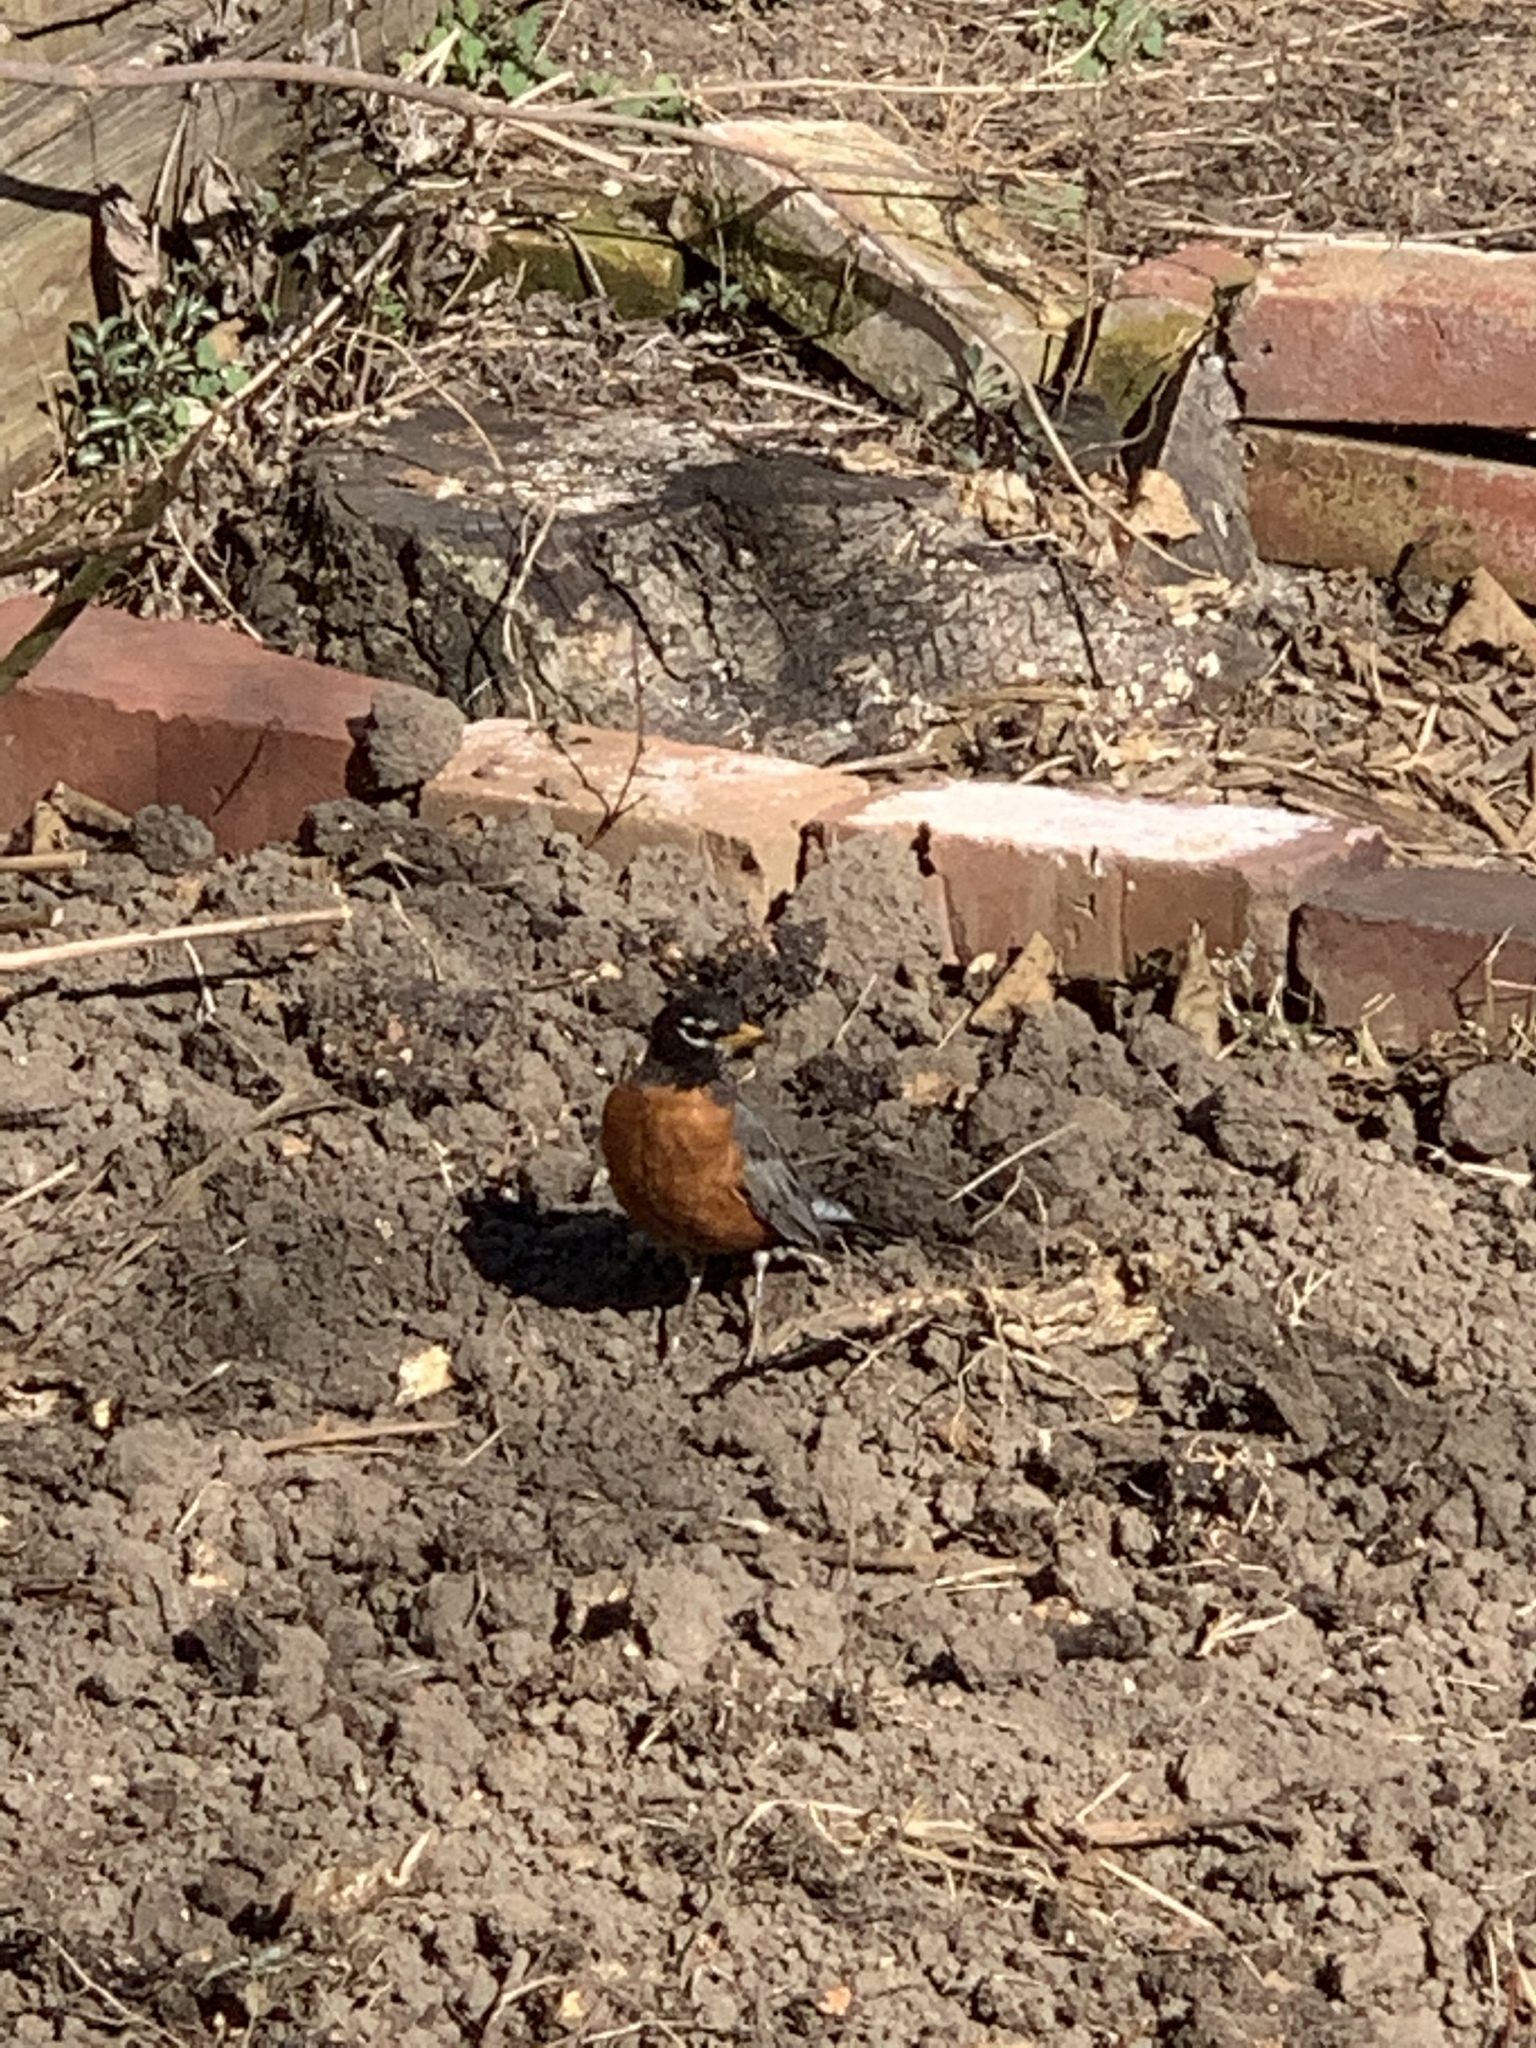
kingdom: Animalia
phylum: Chordata
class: Aves
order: Passeriformes
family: Turdidae
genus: Turdus
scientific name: Turdus migratorius
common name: American robin
